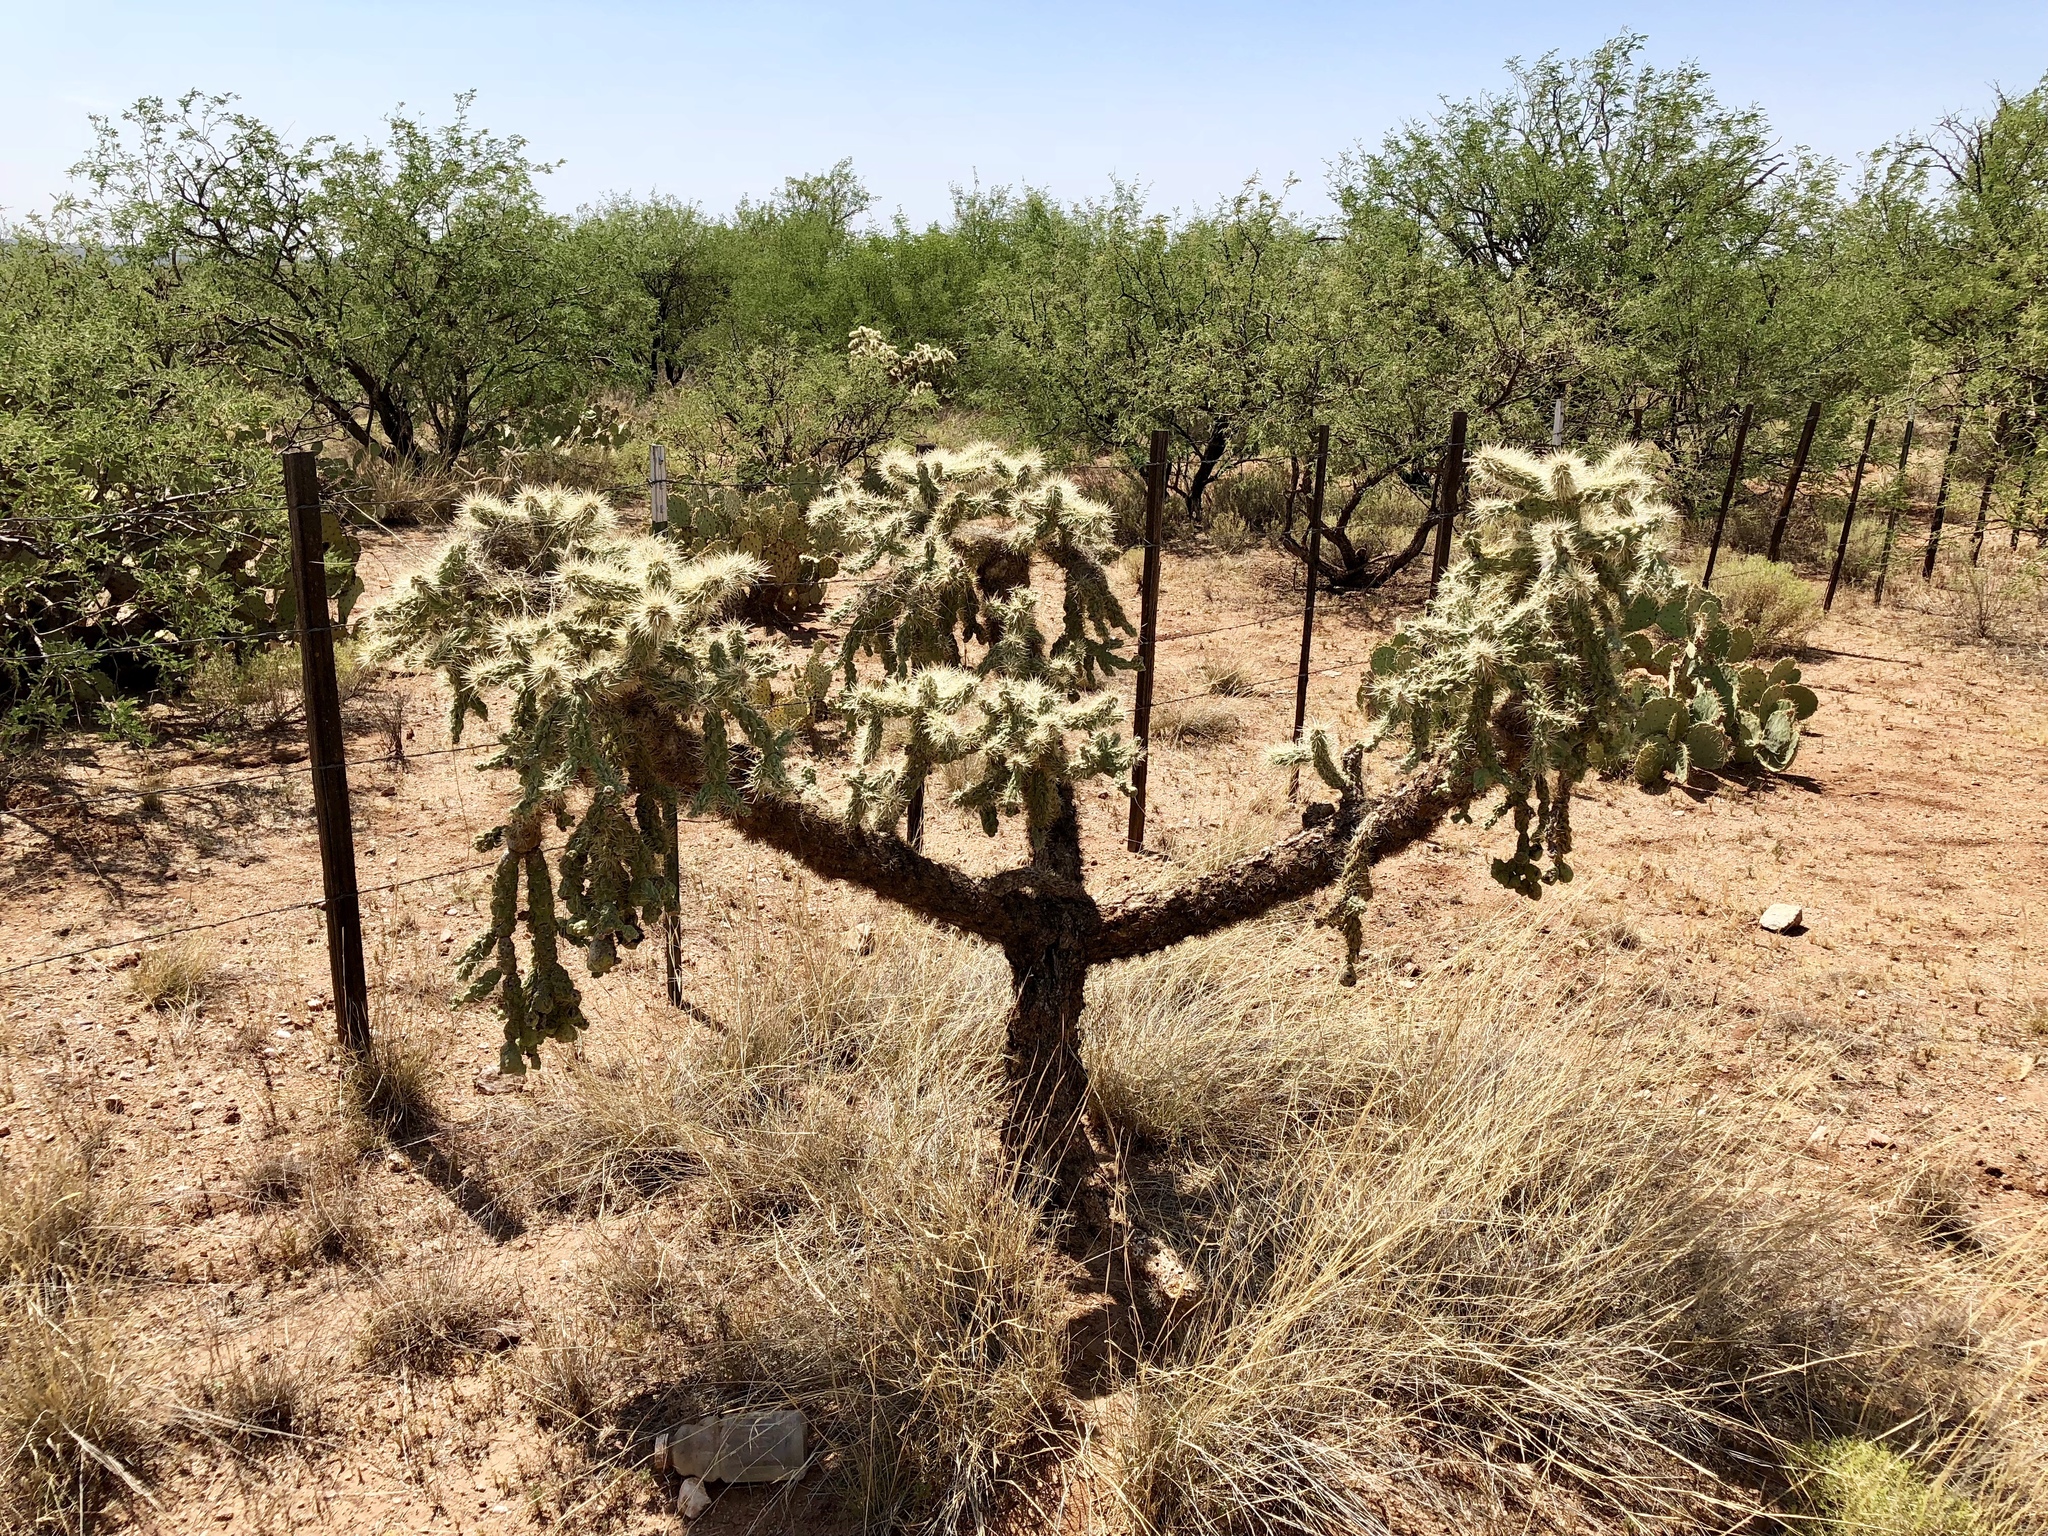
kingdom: Plantae
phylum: Tracheophyta
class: Magnoliopsida
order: Caryophyllales
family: Cactaceae
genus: Cylindropuntia
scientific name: Cylindropuntia fulgida
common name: Jumping cholla
